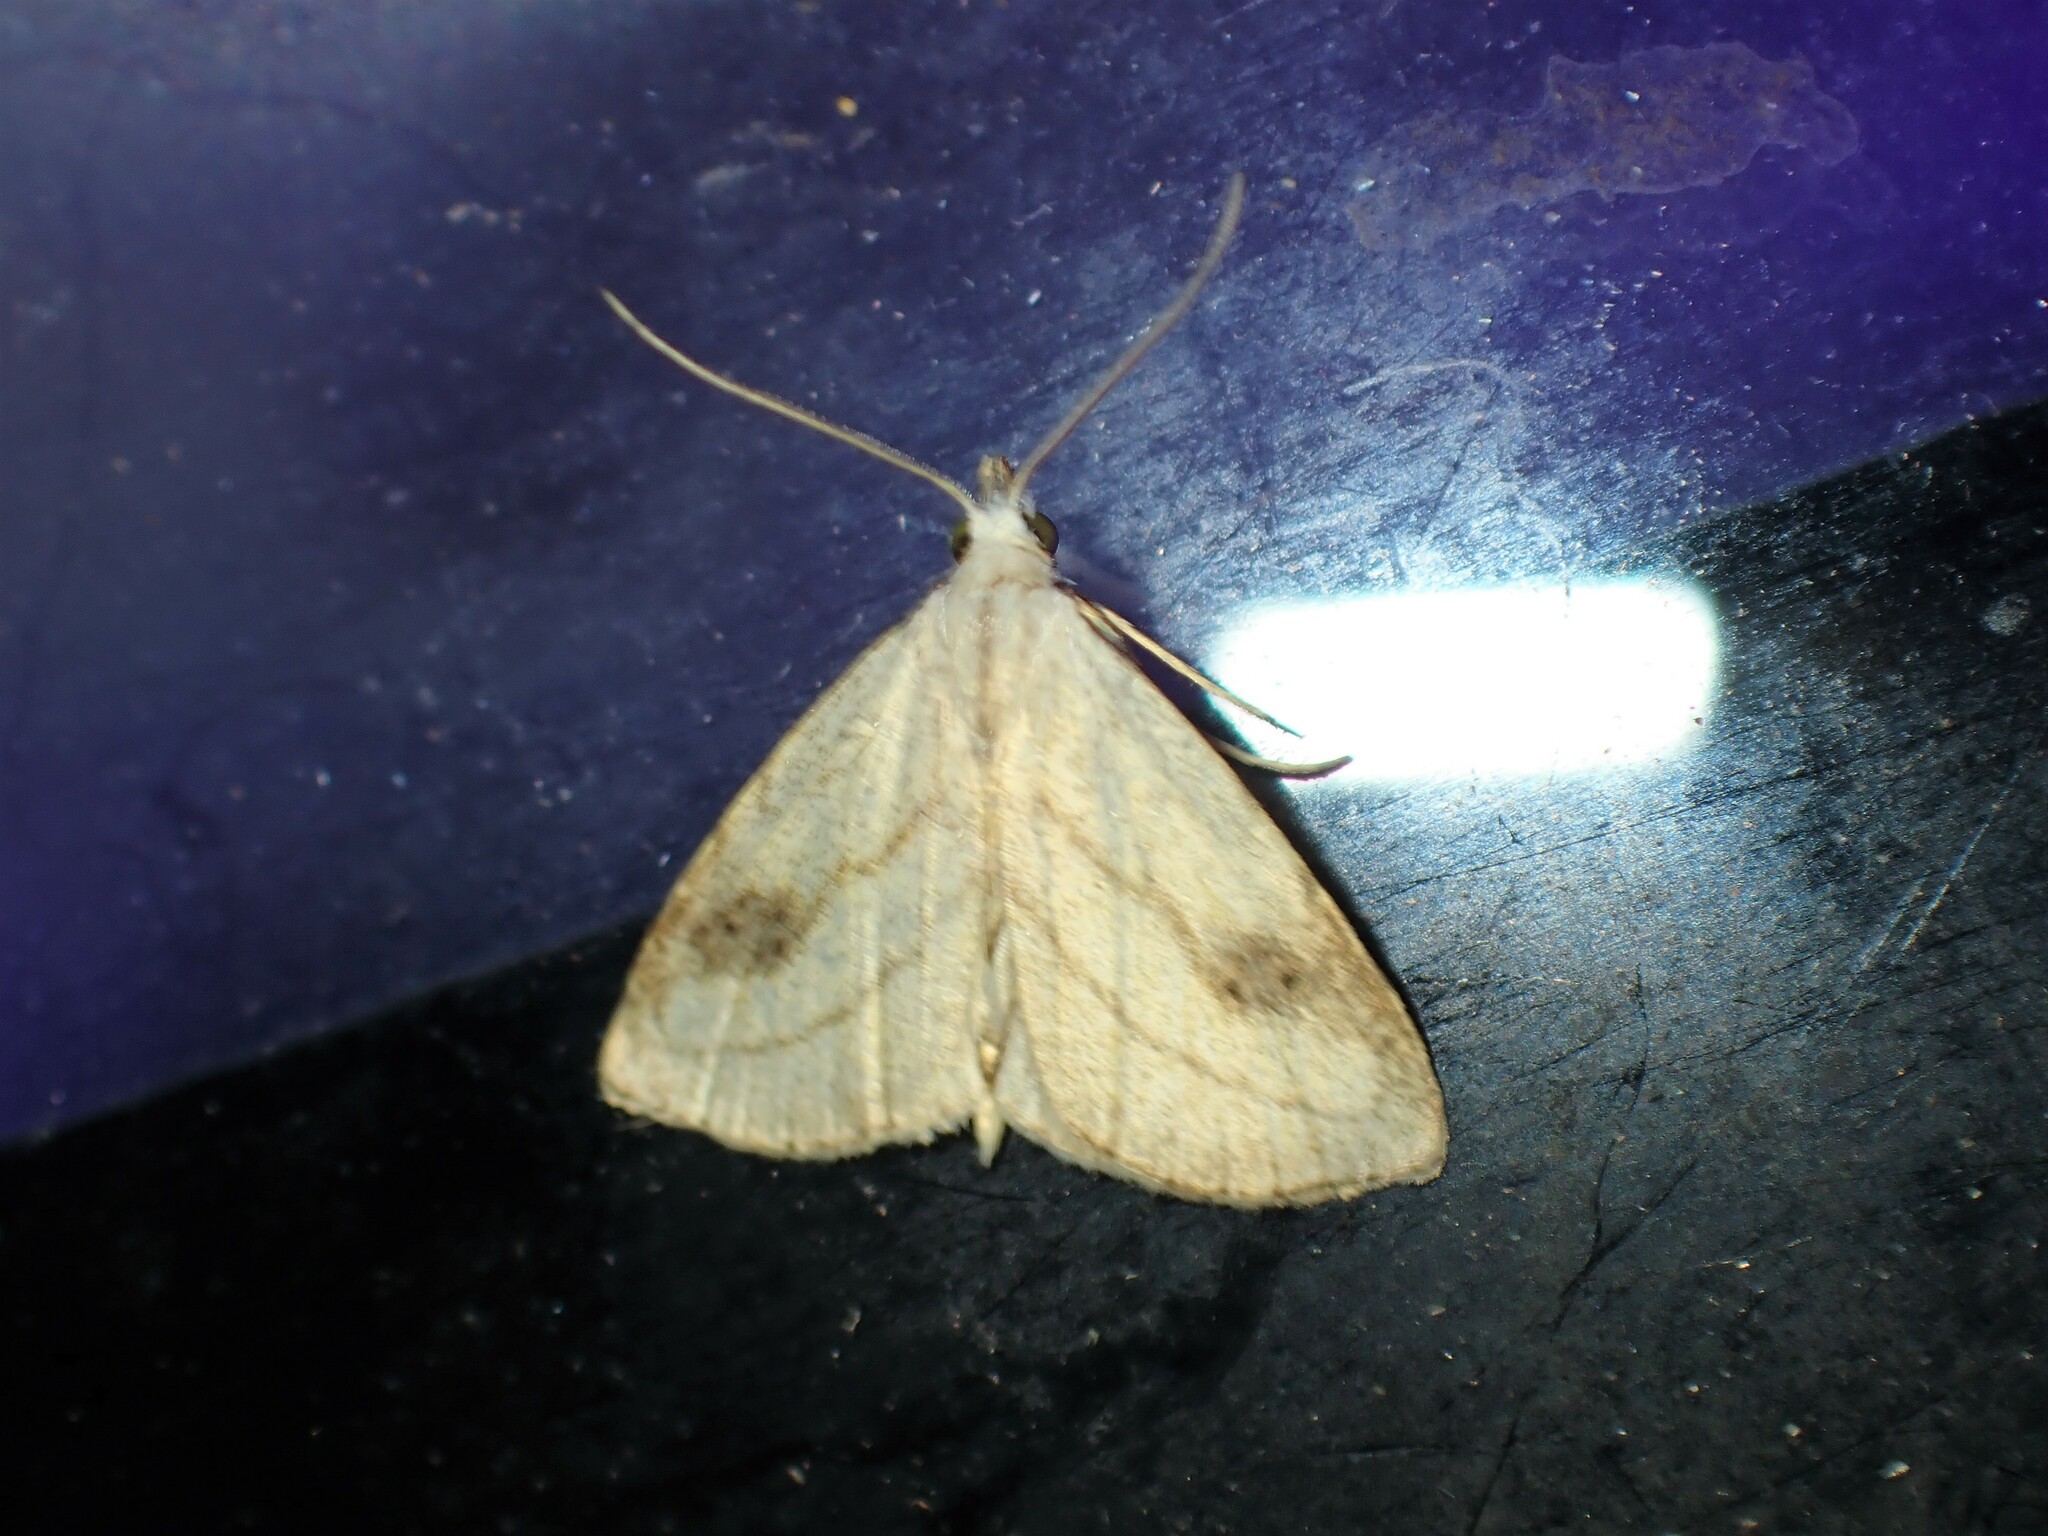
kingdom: Animalia
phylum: Arthropoda
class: Insecta
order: Lepidoptera
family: Erebidae
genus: Rivula
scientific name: Rivula propinqualis
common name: Spotted grass moth
